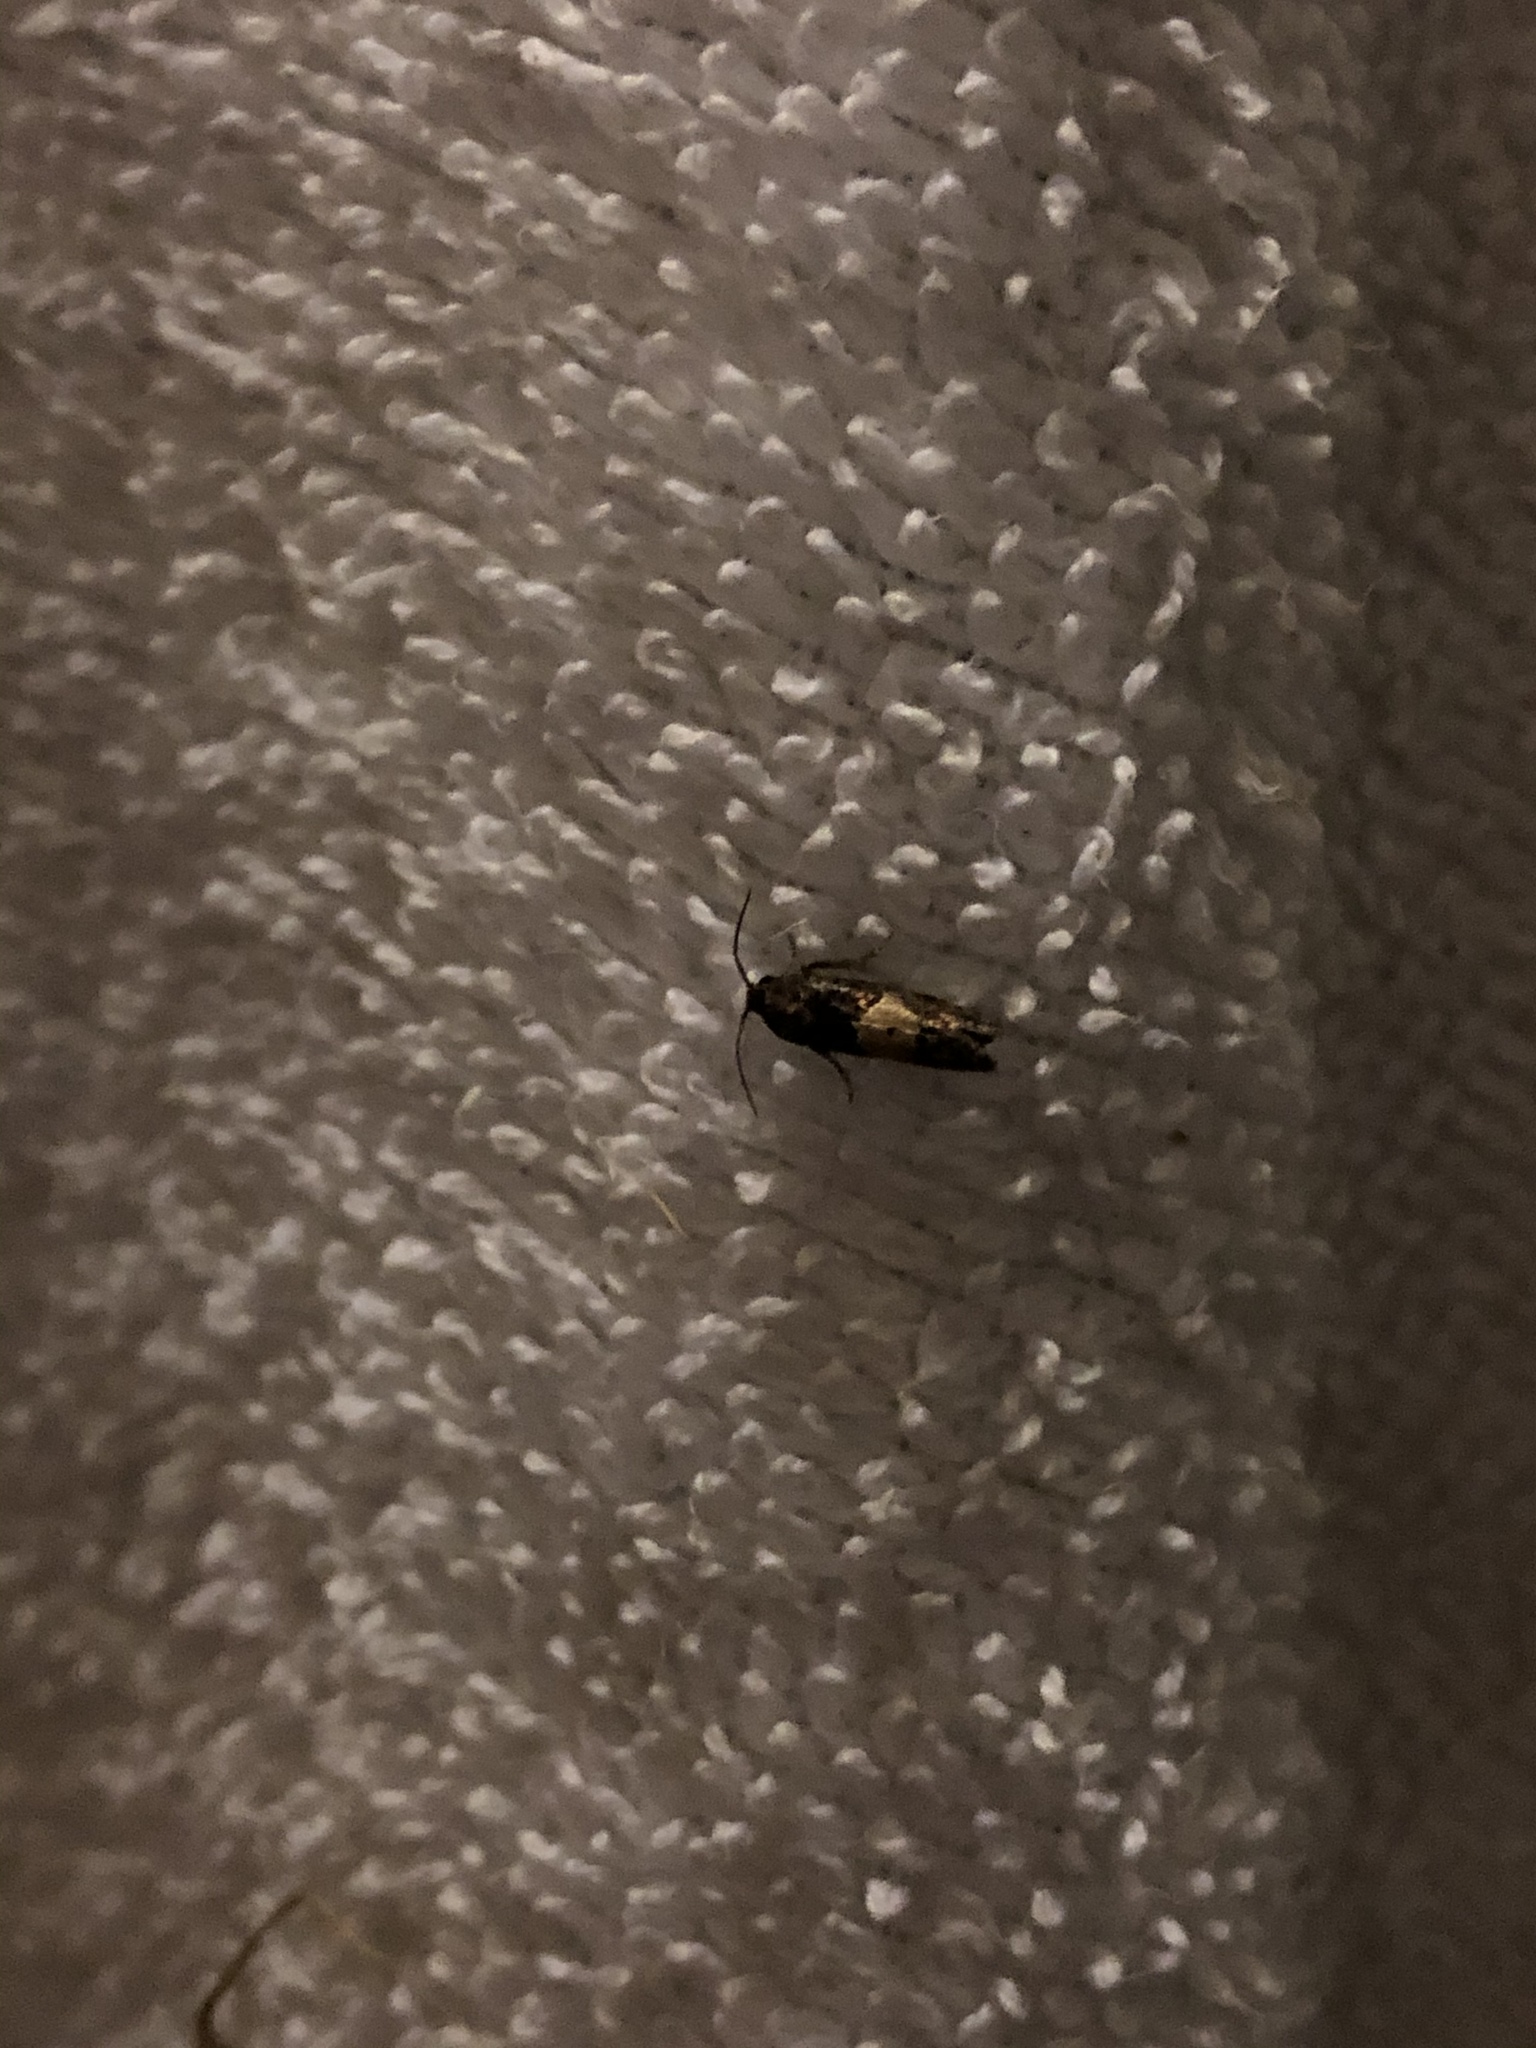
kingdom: Animalia
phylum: Arthropoda
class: Insecta
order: Lepidoptera
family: Tortricidae
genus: Epiblema
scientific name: Epiblema glenni
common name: Glenn's epiblema
